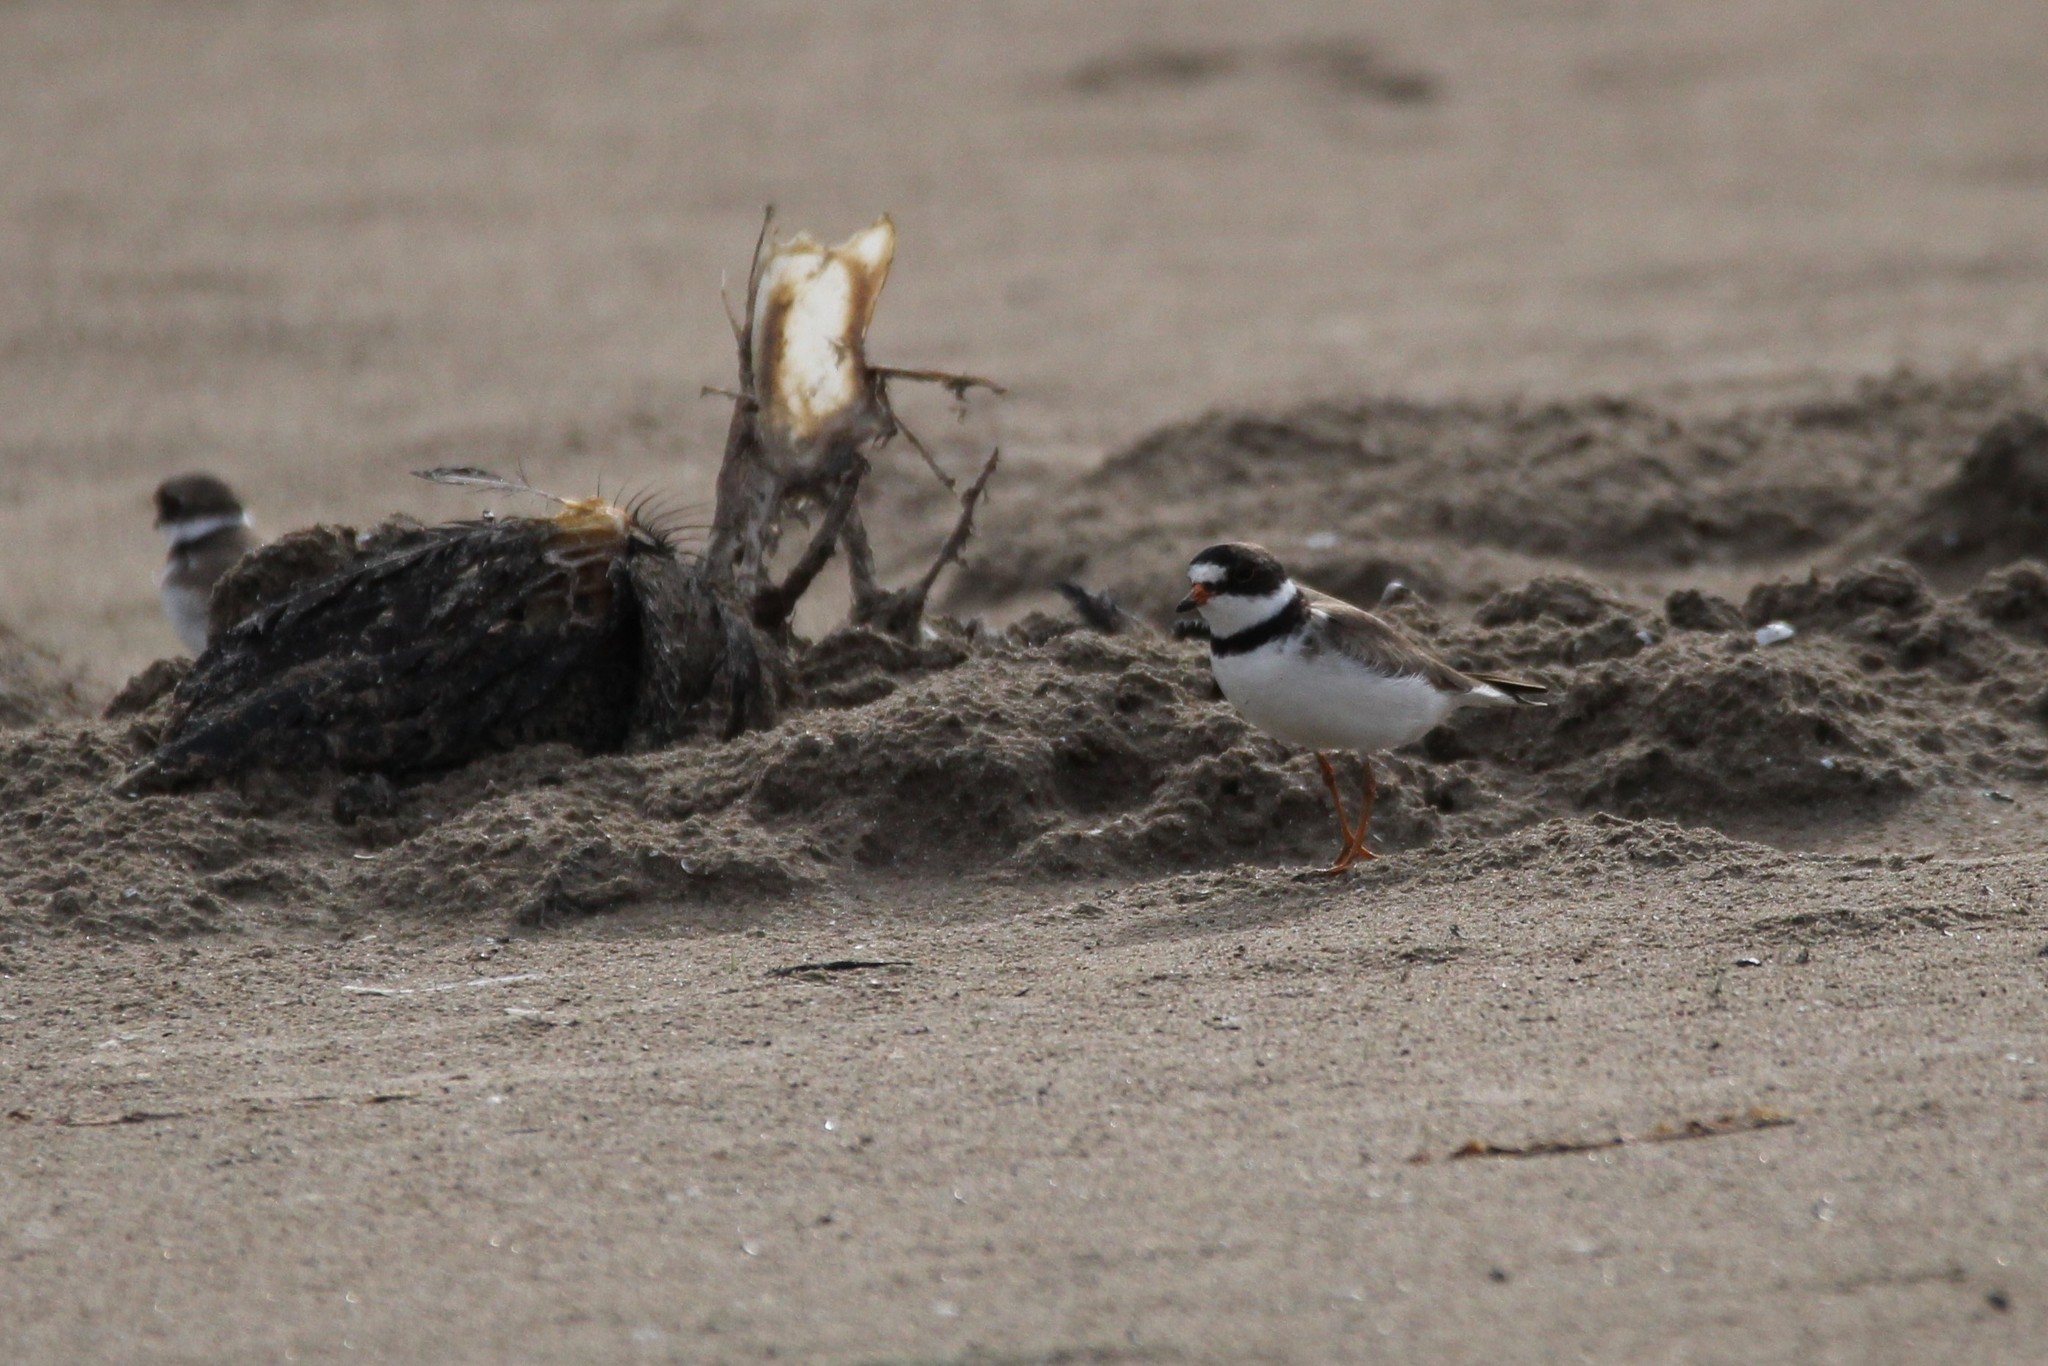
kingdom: Animalia
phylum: Chordata
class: Aves
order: Charadriiformes
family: Charadriidae
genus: Charadrius
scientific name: Charadrius semipalmatus
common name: Semipalmated plover
